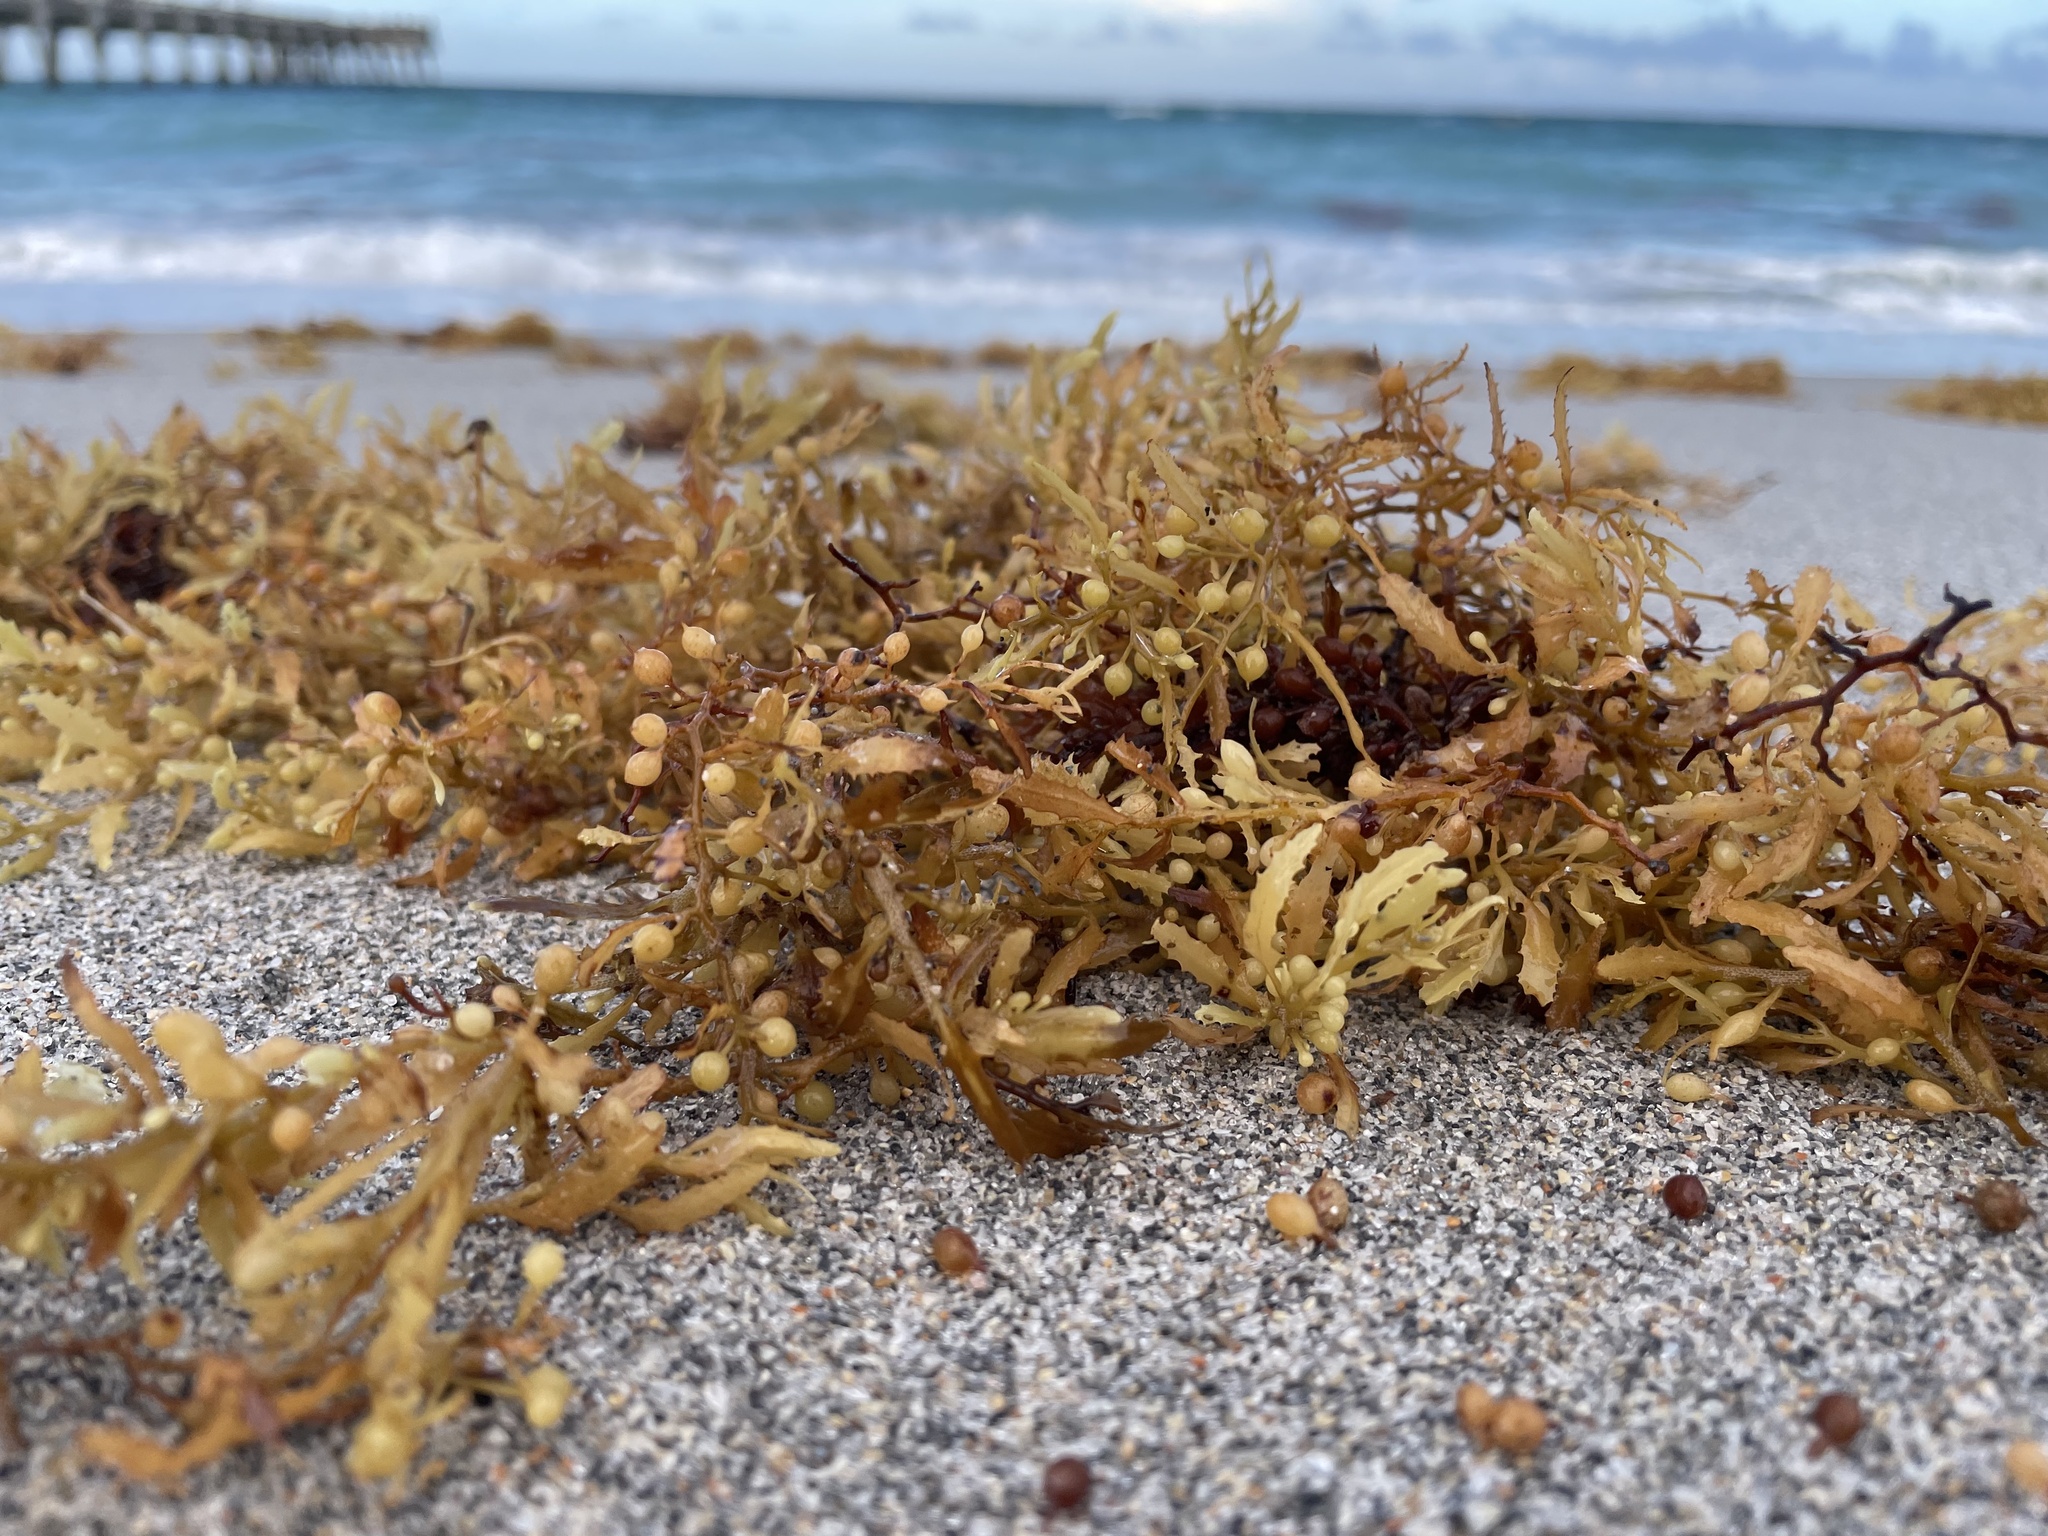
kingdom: Chromista
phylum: Ochrophyta
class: Phaeophyceae
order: Fucales
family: Sargassaceae
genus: Sargassum
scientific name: Sargassum fluitans
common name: Sargassum seaweed
